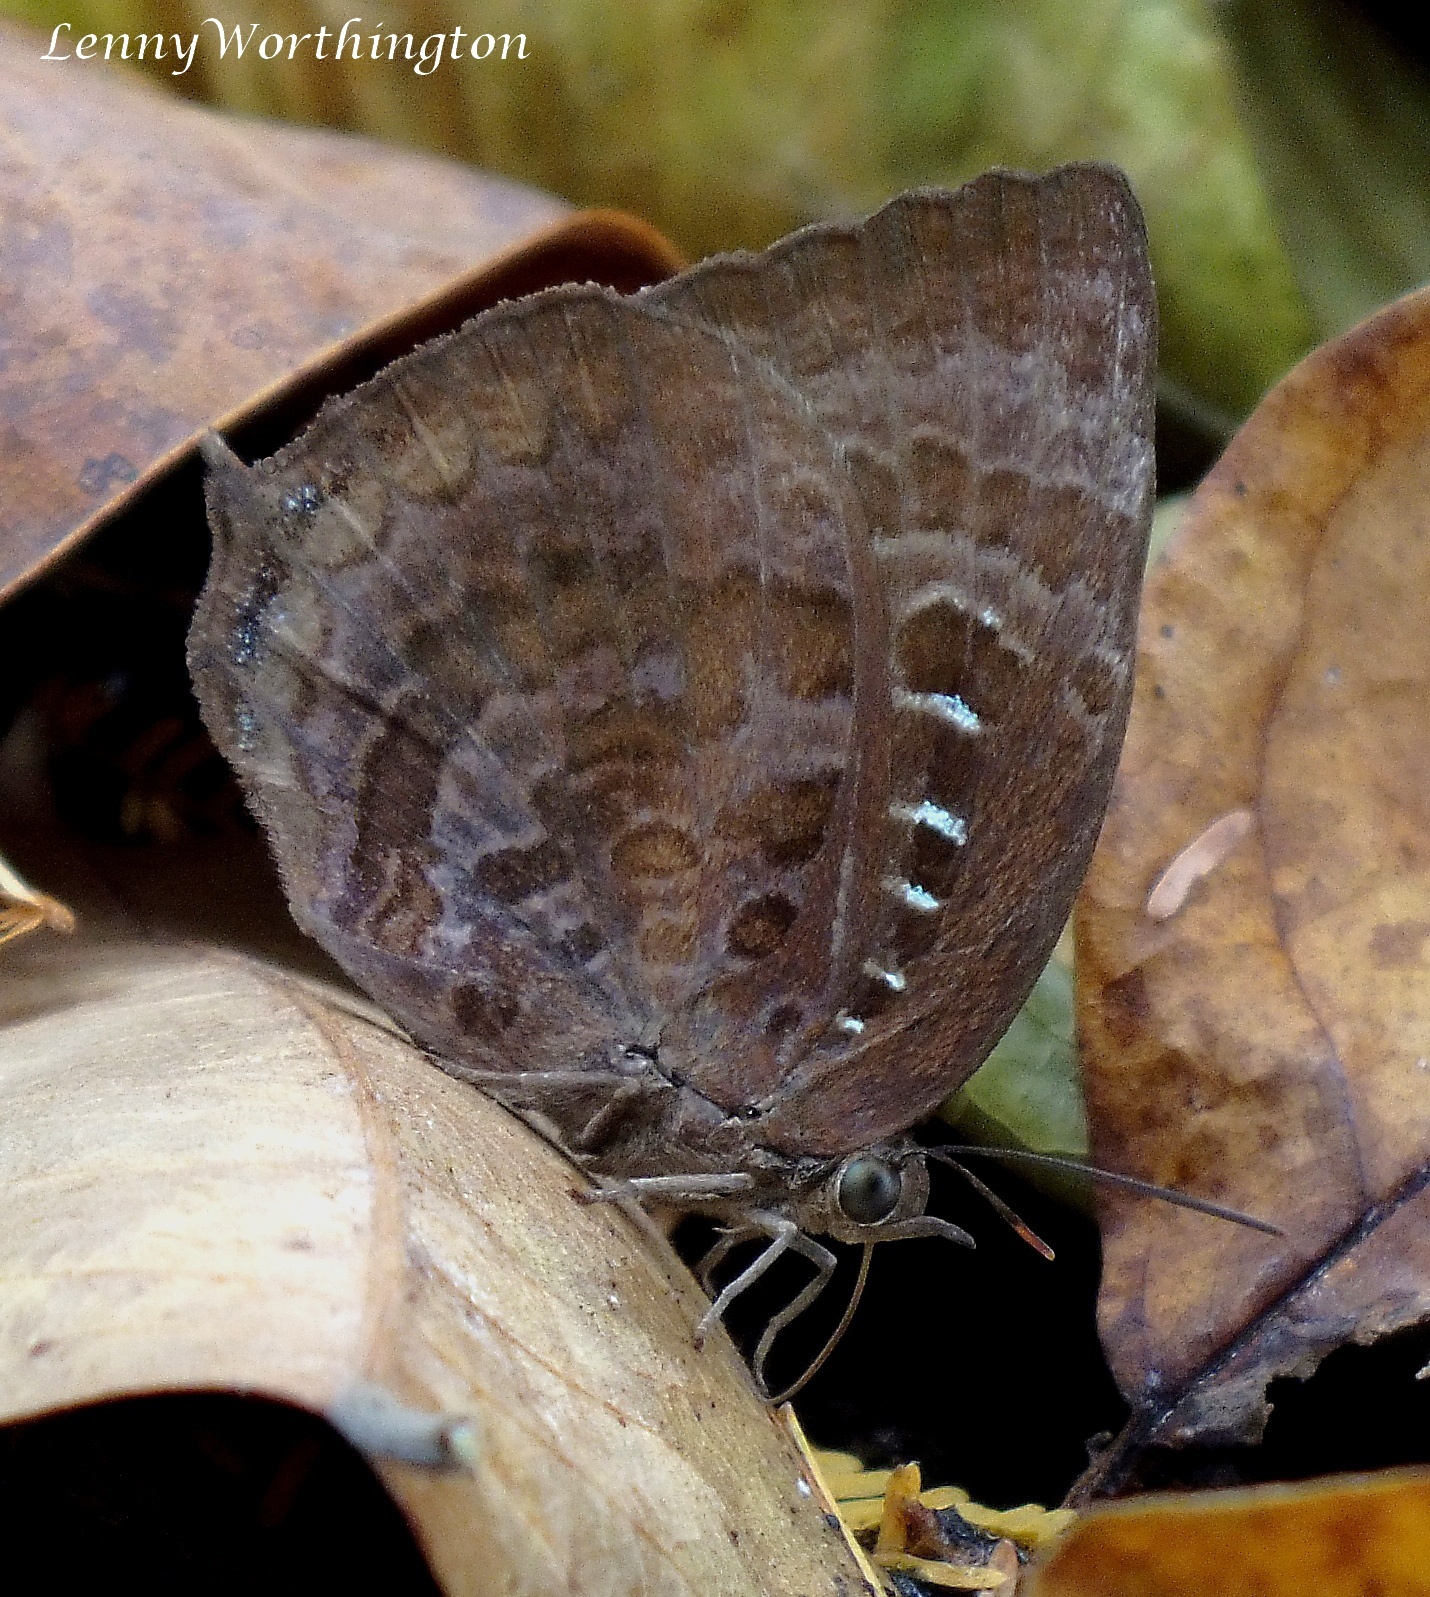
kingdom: Animalia
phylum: Arthropoda
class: Insecta
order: Lepidoptera
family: Lycaenidae
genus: Arhopala
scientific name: Arhopala centaurus
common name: Dull oak-blue
